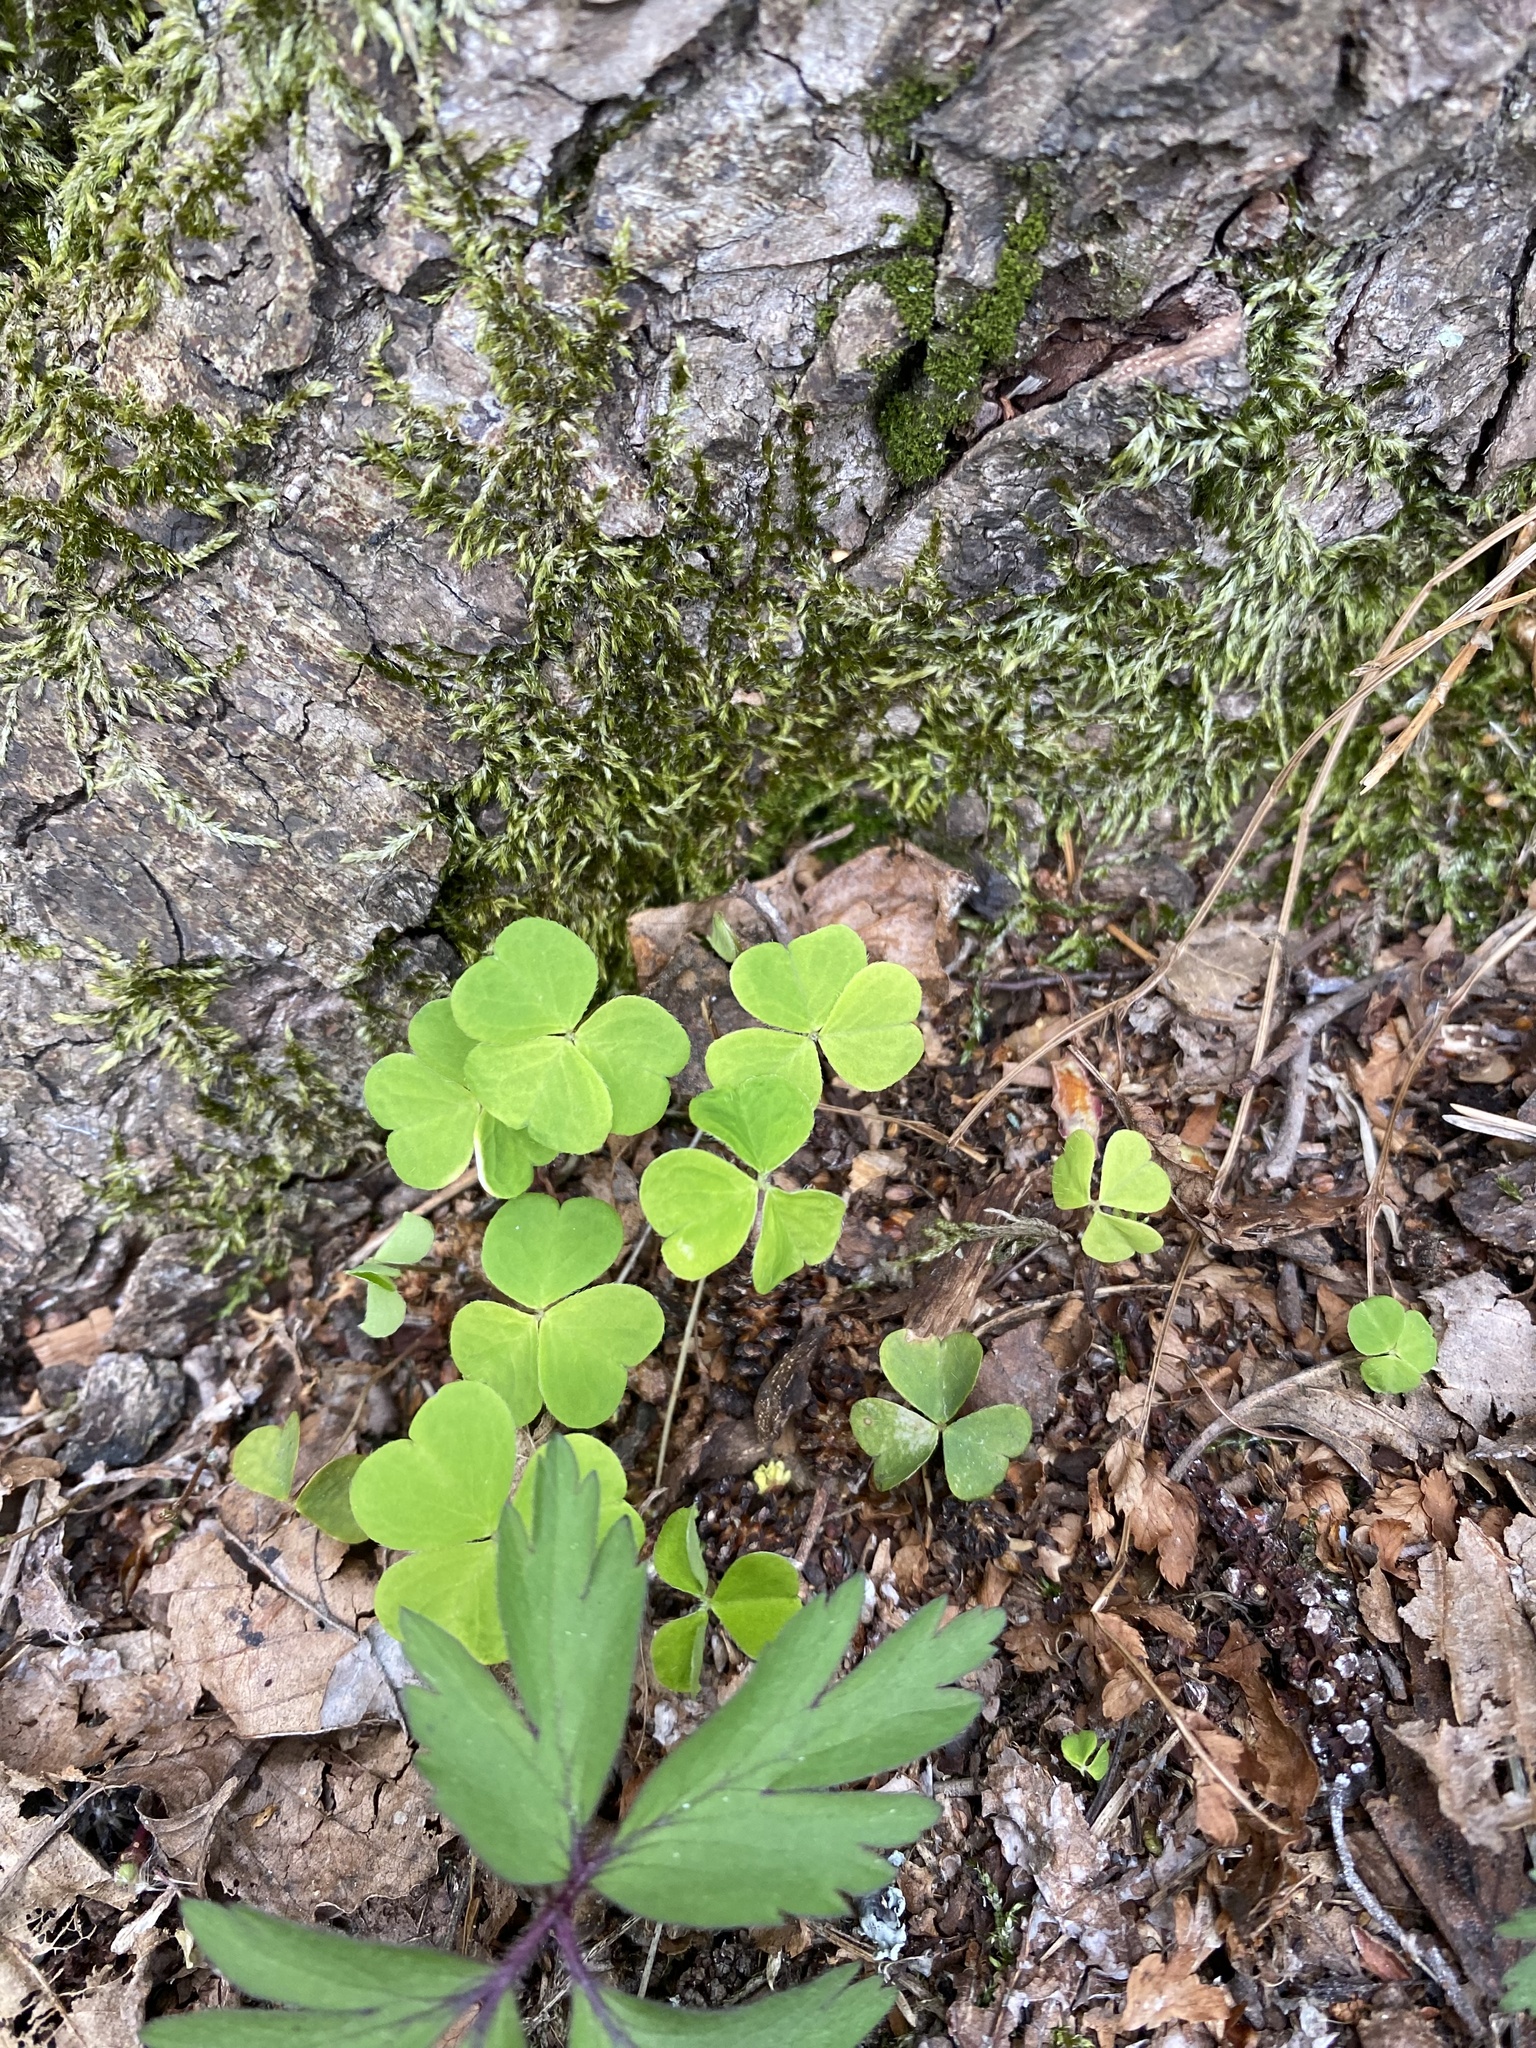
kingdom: Plantae
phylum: Tracheophyta
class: Magnoliopsida
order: Oxalidales
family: Oxalidaceae
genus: Oxalis
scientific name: Oxalis acetosella
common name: Wood-sorrel
